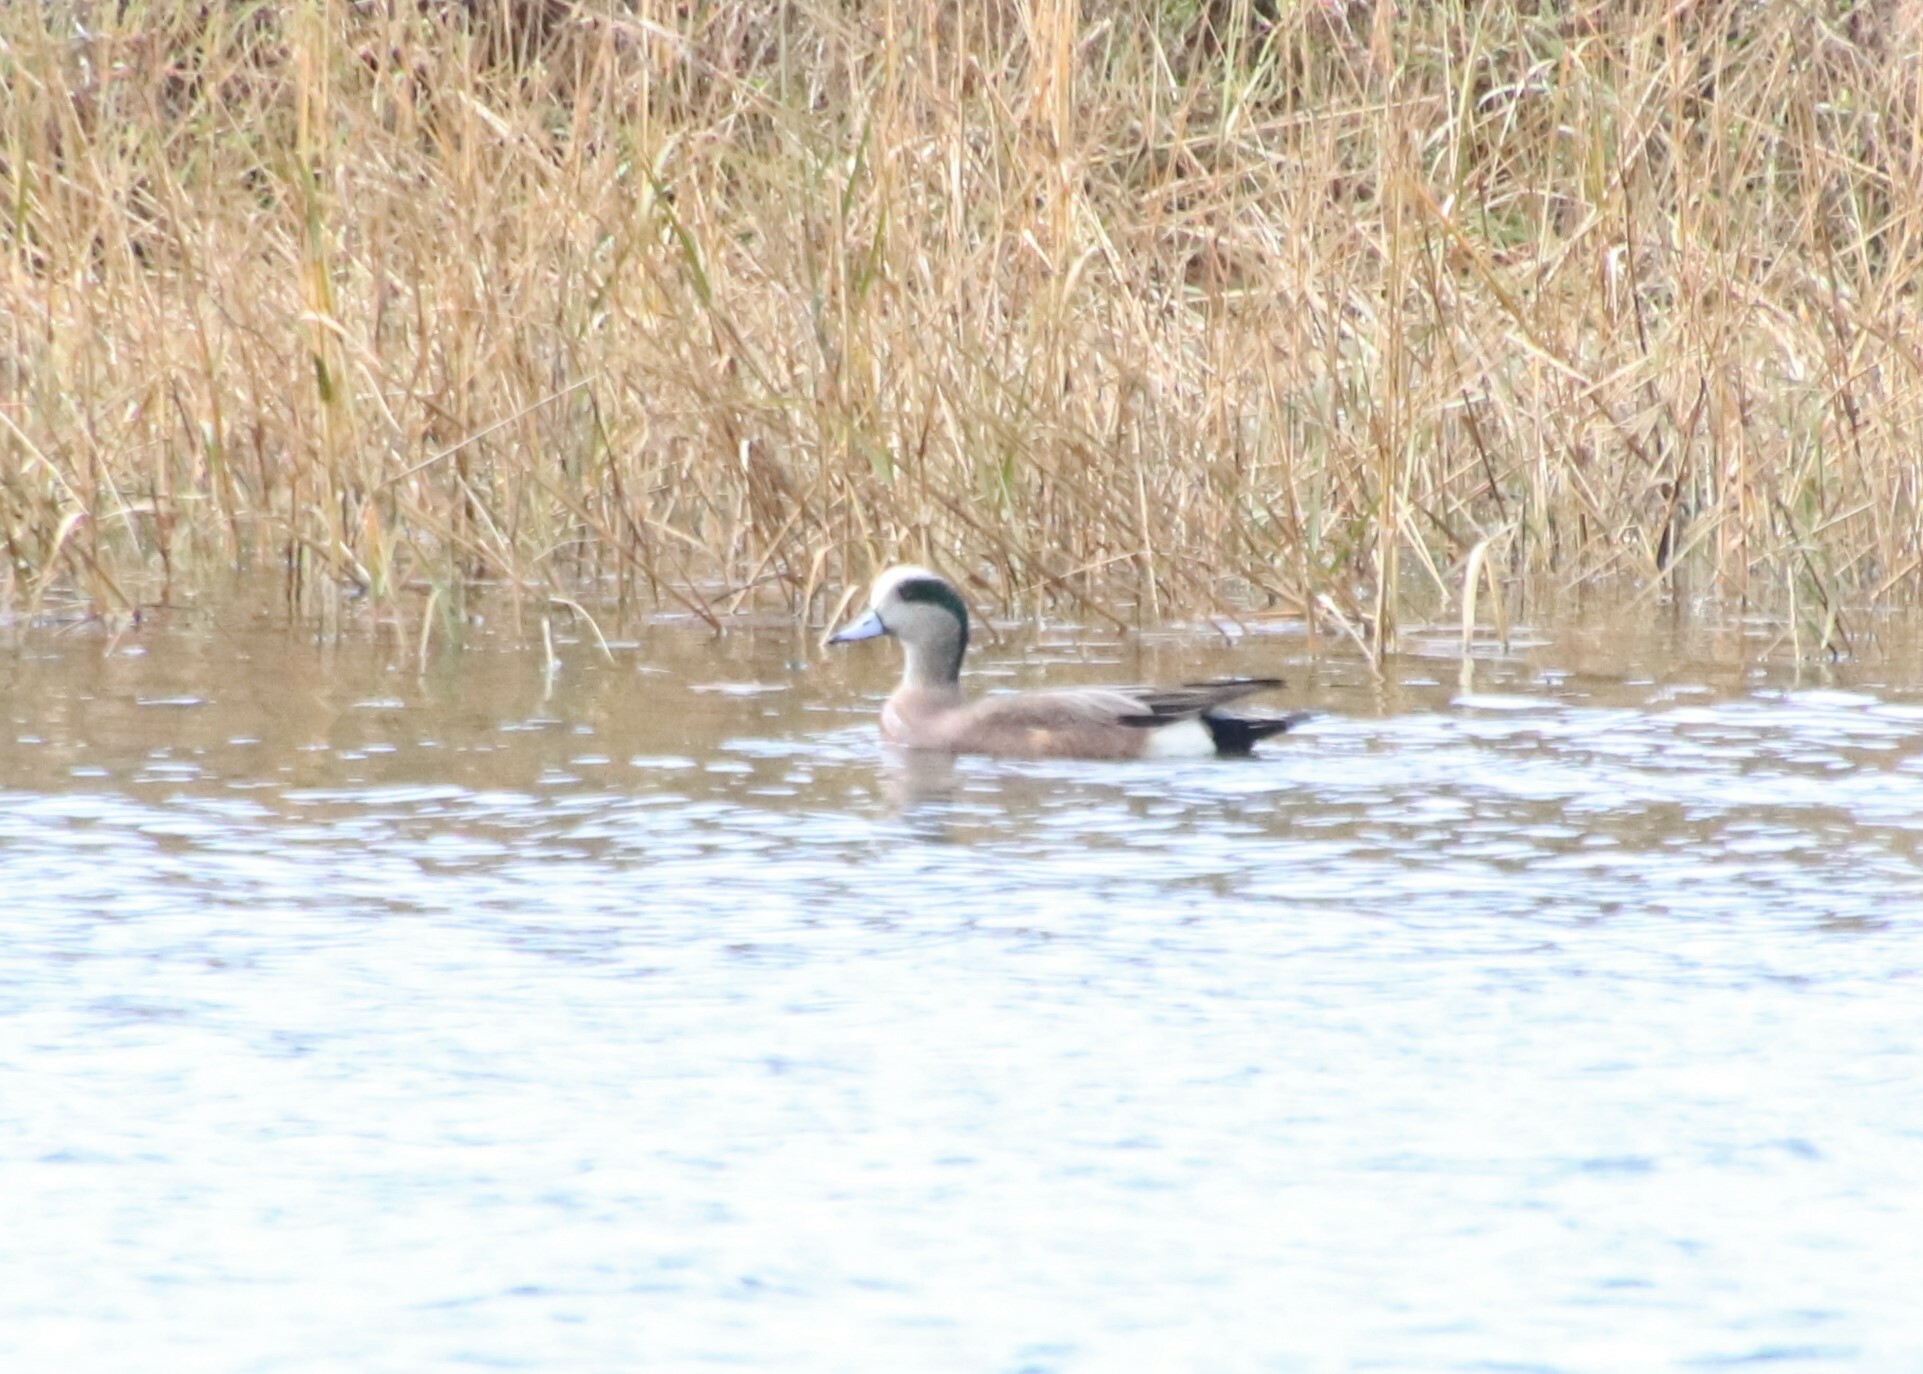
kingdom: Animalia
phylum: Chordata
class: Aves
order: Anseriformes
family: Anatidae
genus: Mareca
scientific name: Mareca americana
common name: American wigeon
